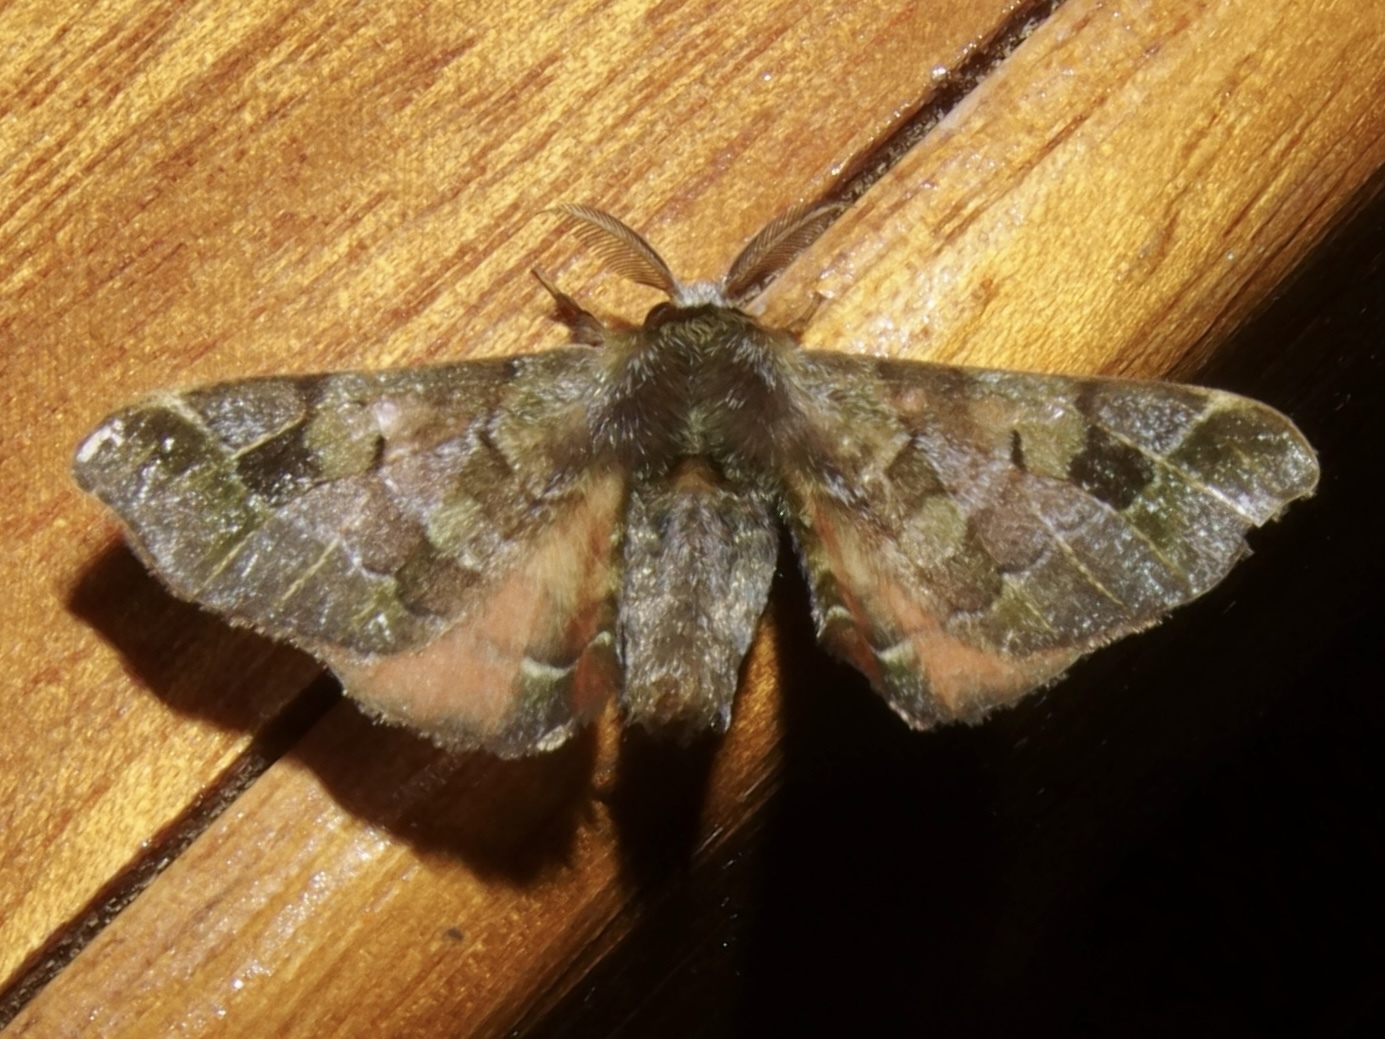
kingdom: Animalia
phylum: Arthropoda
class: Insecta
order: Lepidoptera
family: Bombycidae
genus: Quentalia
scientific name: Quentalia
